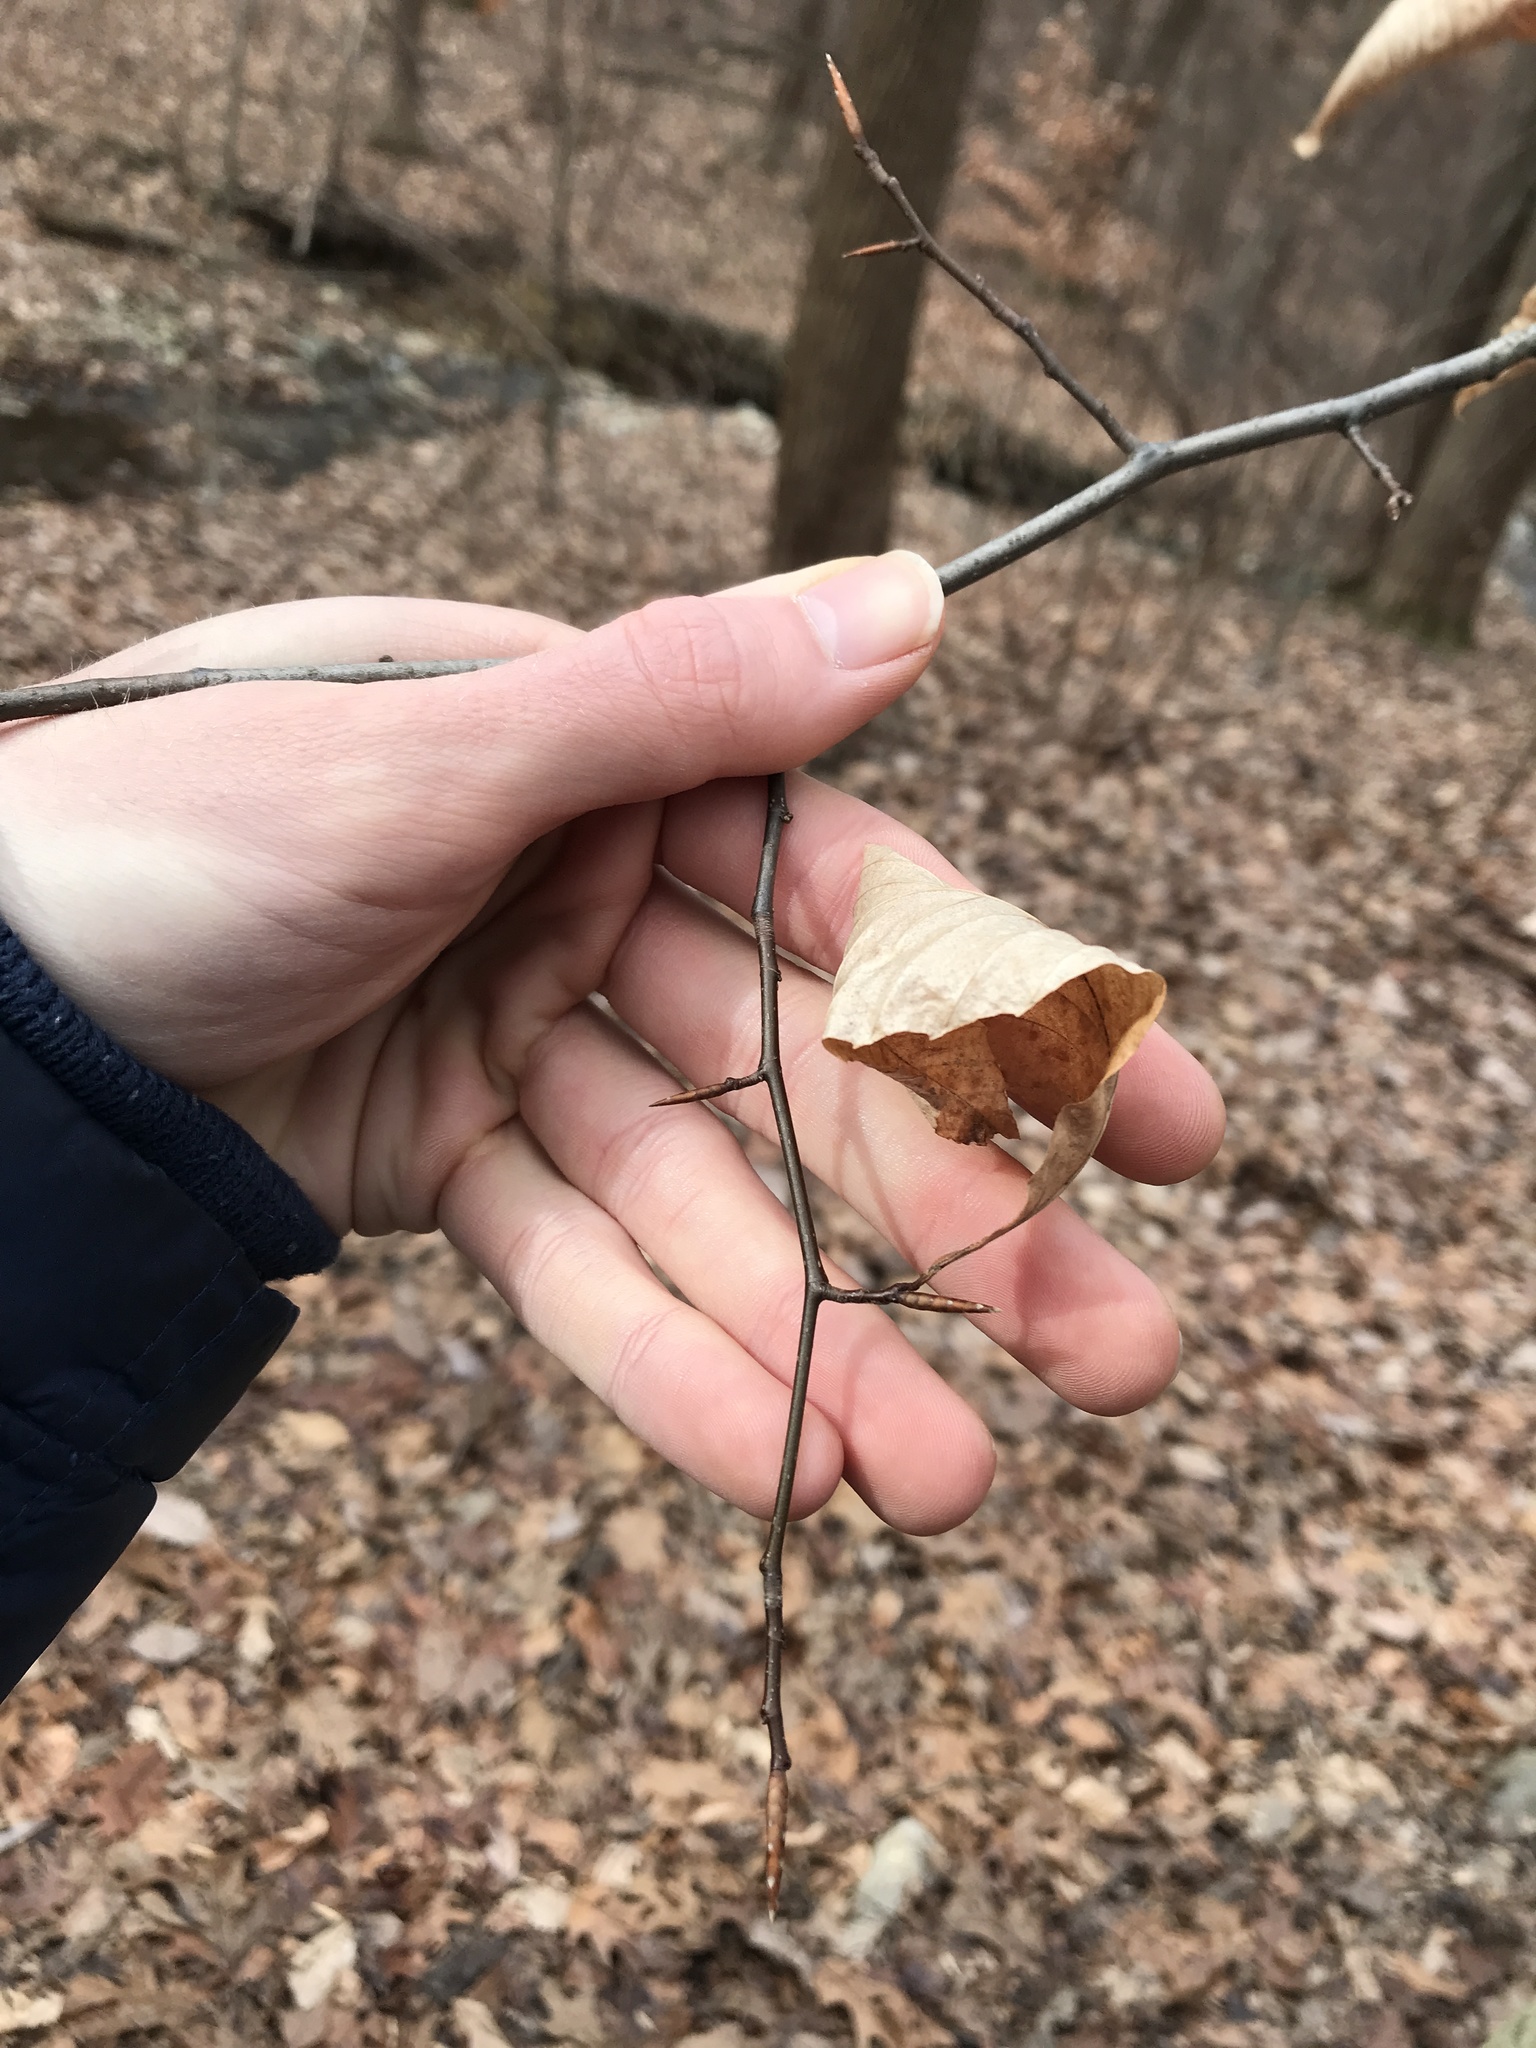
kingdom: Plantae
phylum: Tracheophyta
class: Magnoliopsida
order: Fagales
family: Fagaceae
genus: Fagus
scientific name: Fagus grandifolia
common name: American beech
